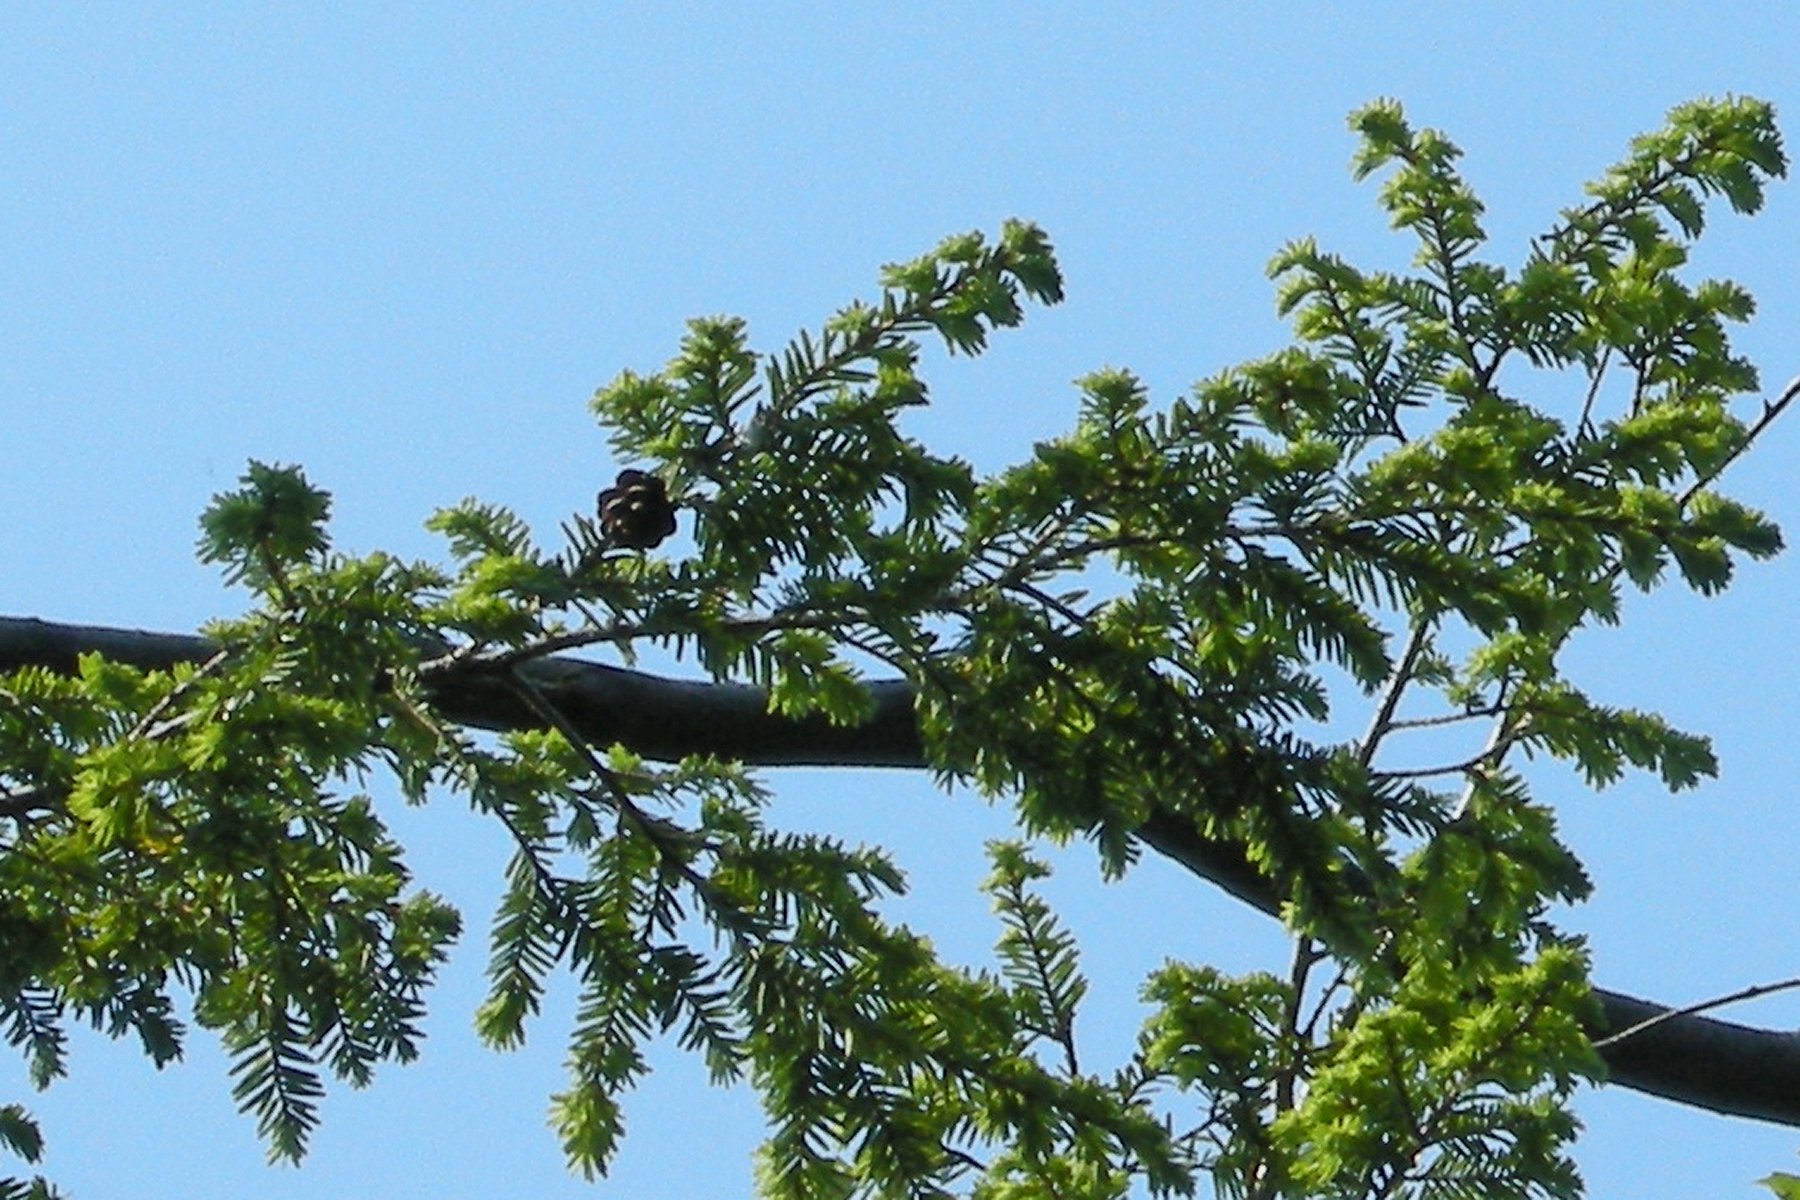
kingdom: Plantae
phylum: Tracheophyta
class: Pinopsida
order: Pinales
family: Pinaceae
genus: Tsuga
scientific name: Tsuga canadensis
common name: Eastern hemlock
